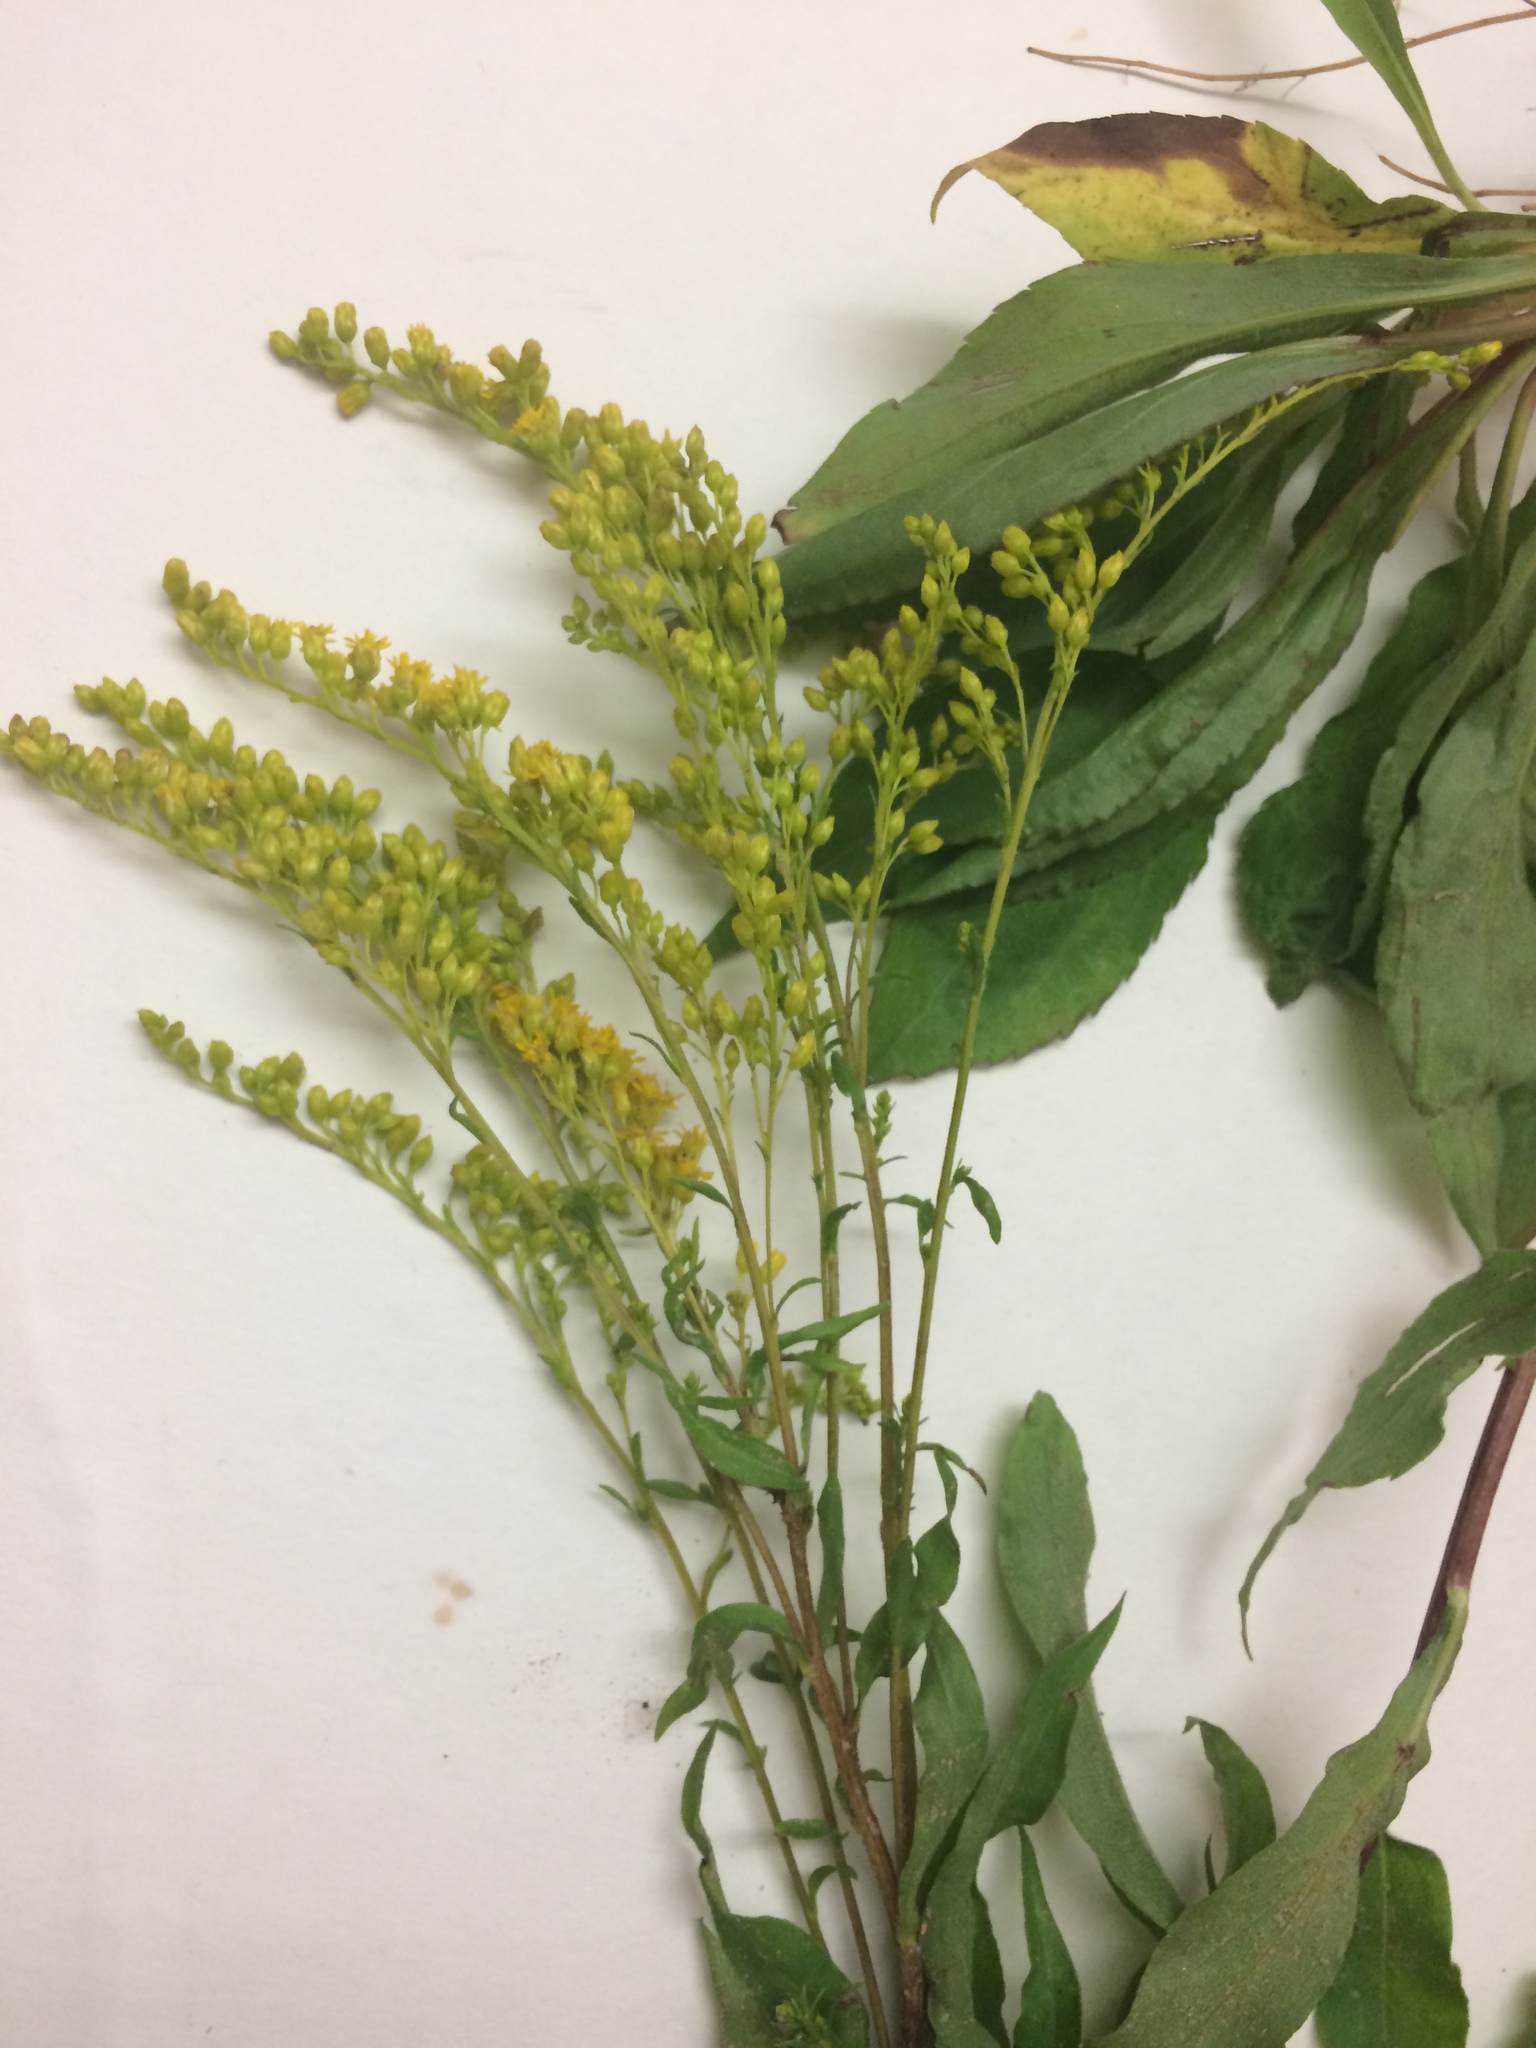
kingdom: Plantae
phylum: Tracheophyta
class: Magnoliopsida
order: Asterales
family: Asteraceae
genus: Solidago
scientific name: Solidago juncea
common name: Early goldenrod
